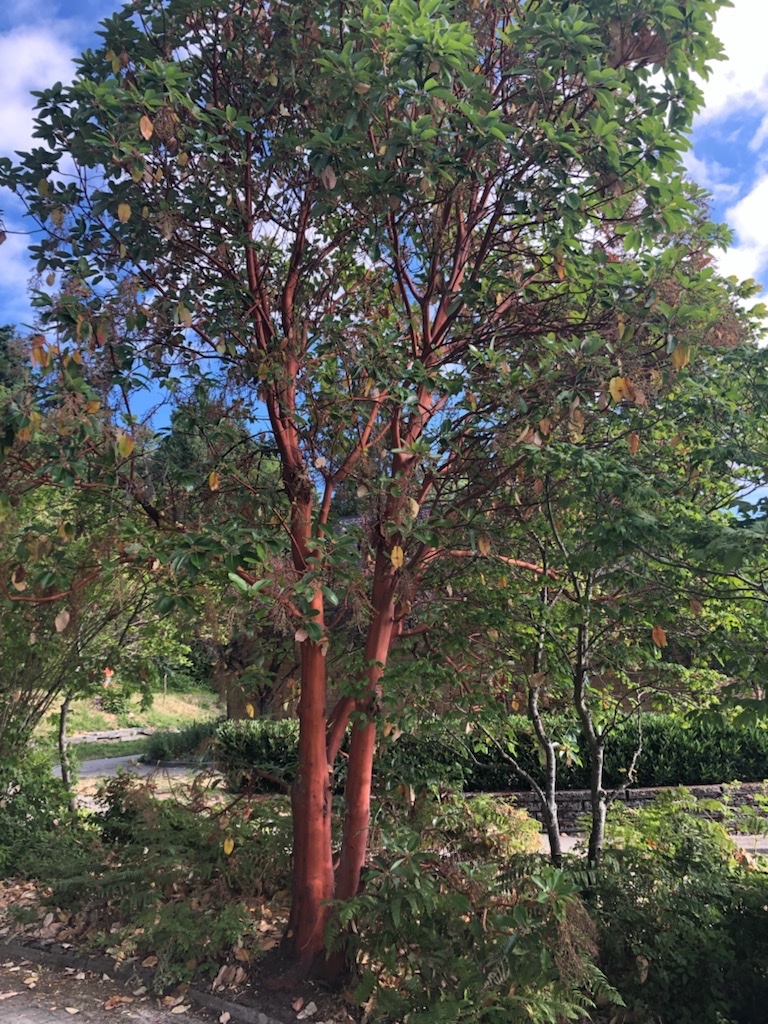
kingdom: Plantae
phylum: Tracheophyta
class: Magnoliopsida
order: Ericales
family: Ericaceae
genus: Arbutus
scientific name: Arbutus menziesii
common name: Pacific madrone
